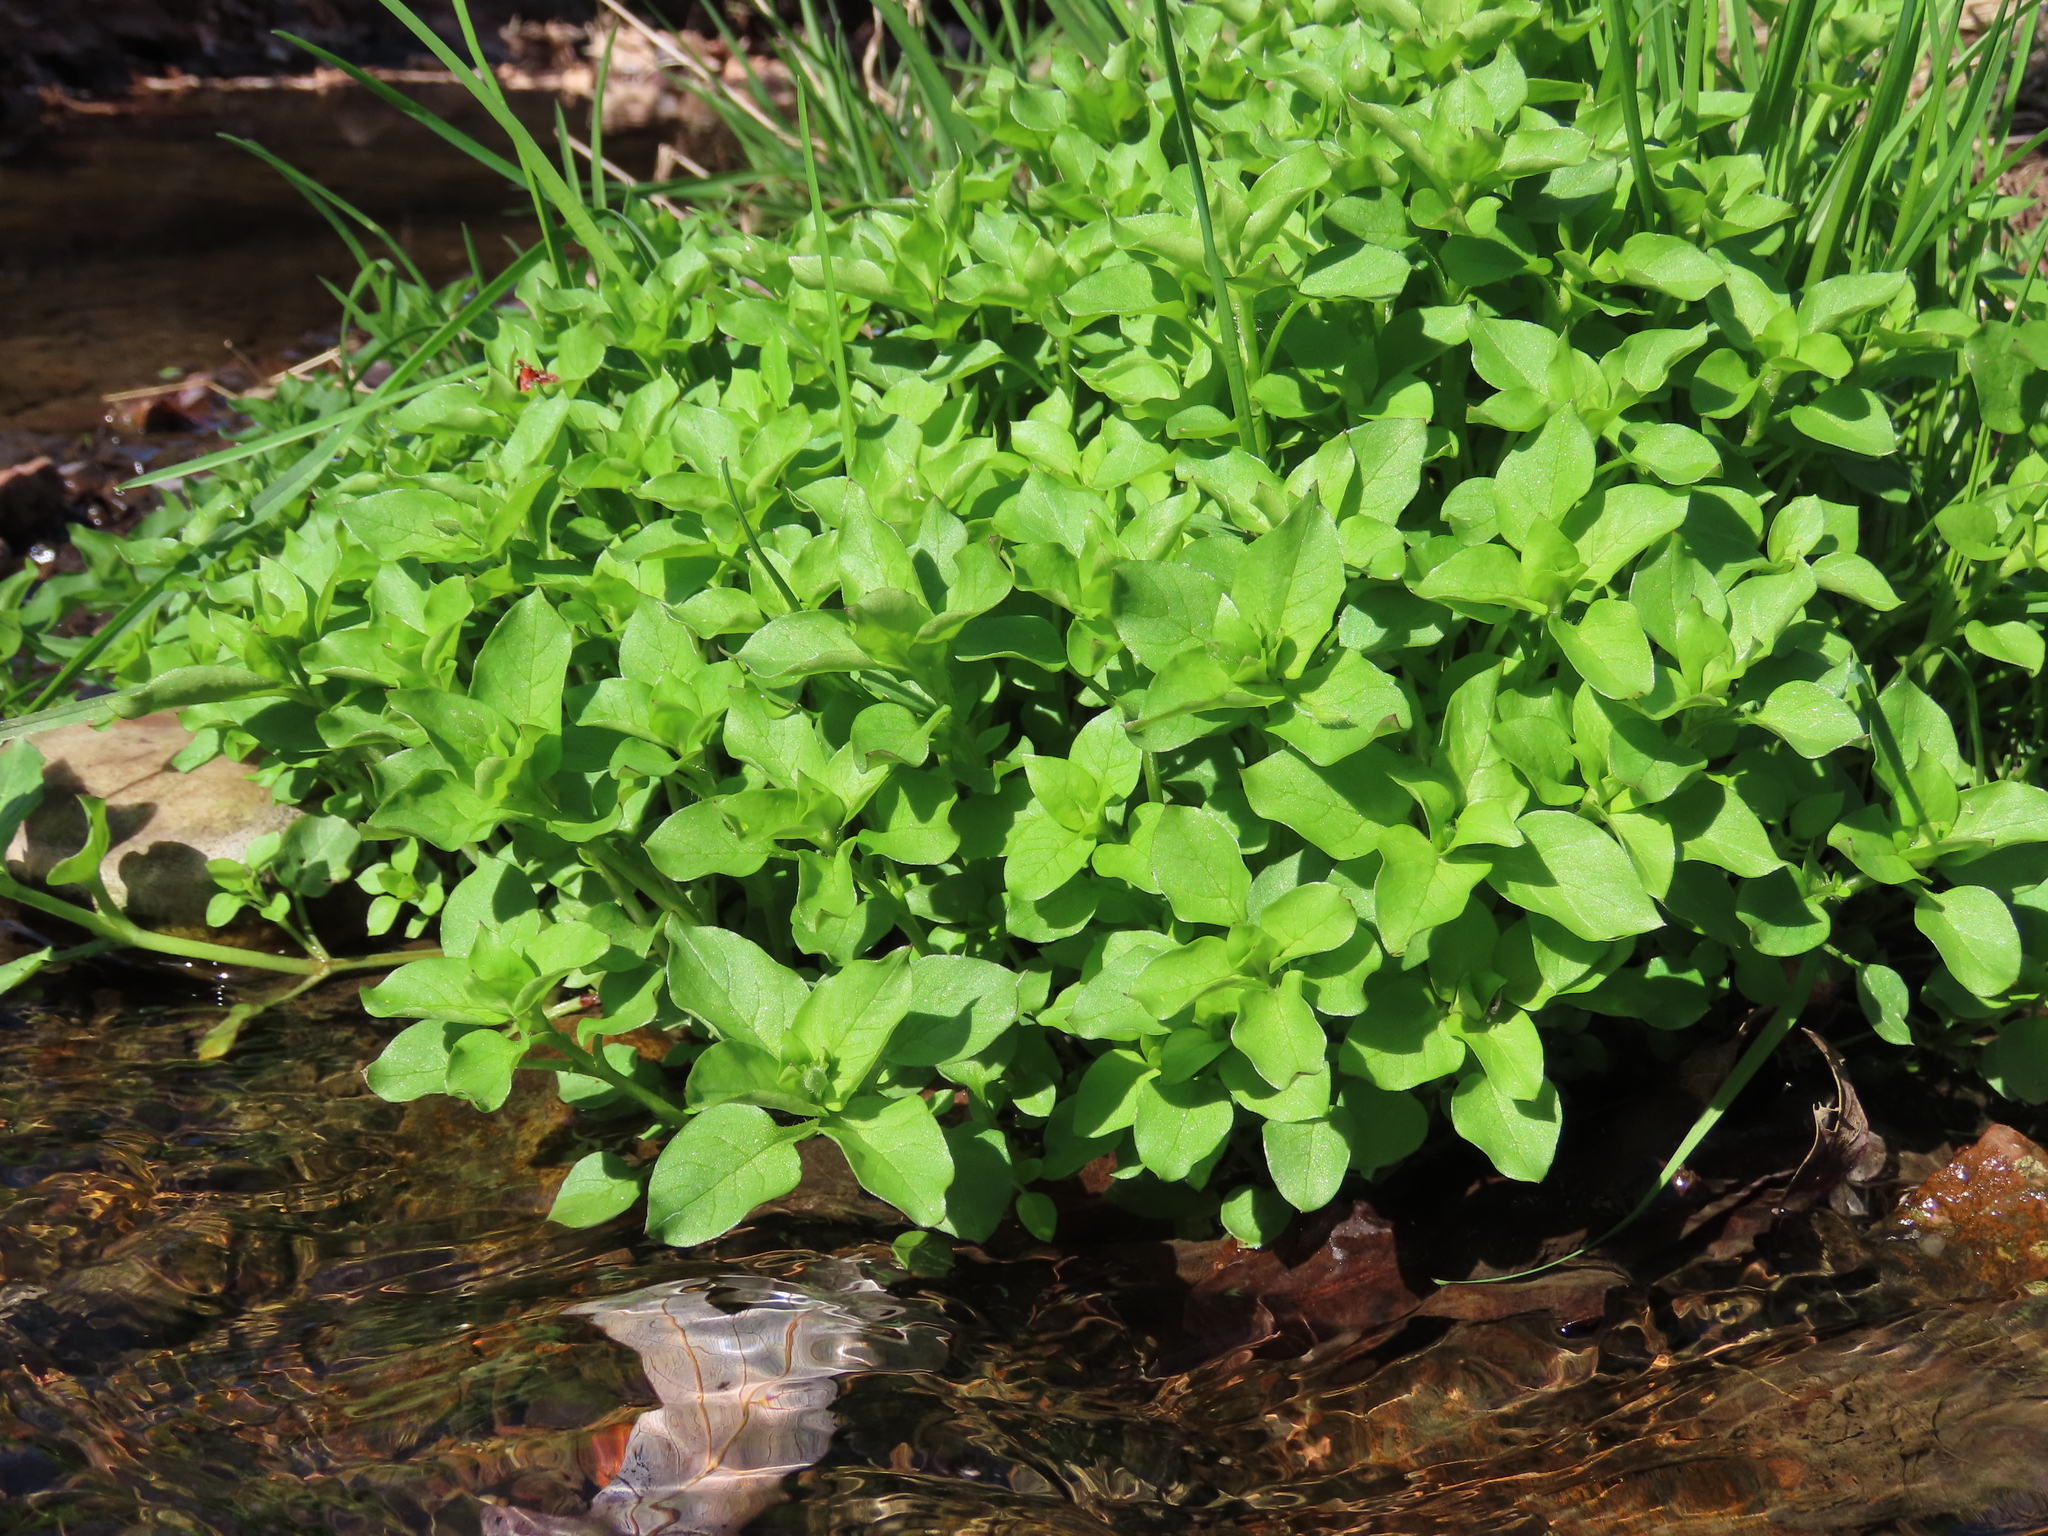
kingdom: Plantae
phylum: Tracheophyta
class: Magnoliopsida
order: Caryophyllales
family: Caryophyllaceae
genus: Stellaria
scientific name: Stellaria aquatica
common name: Water chickweed
